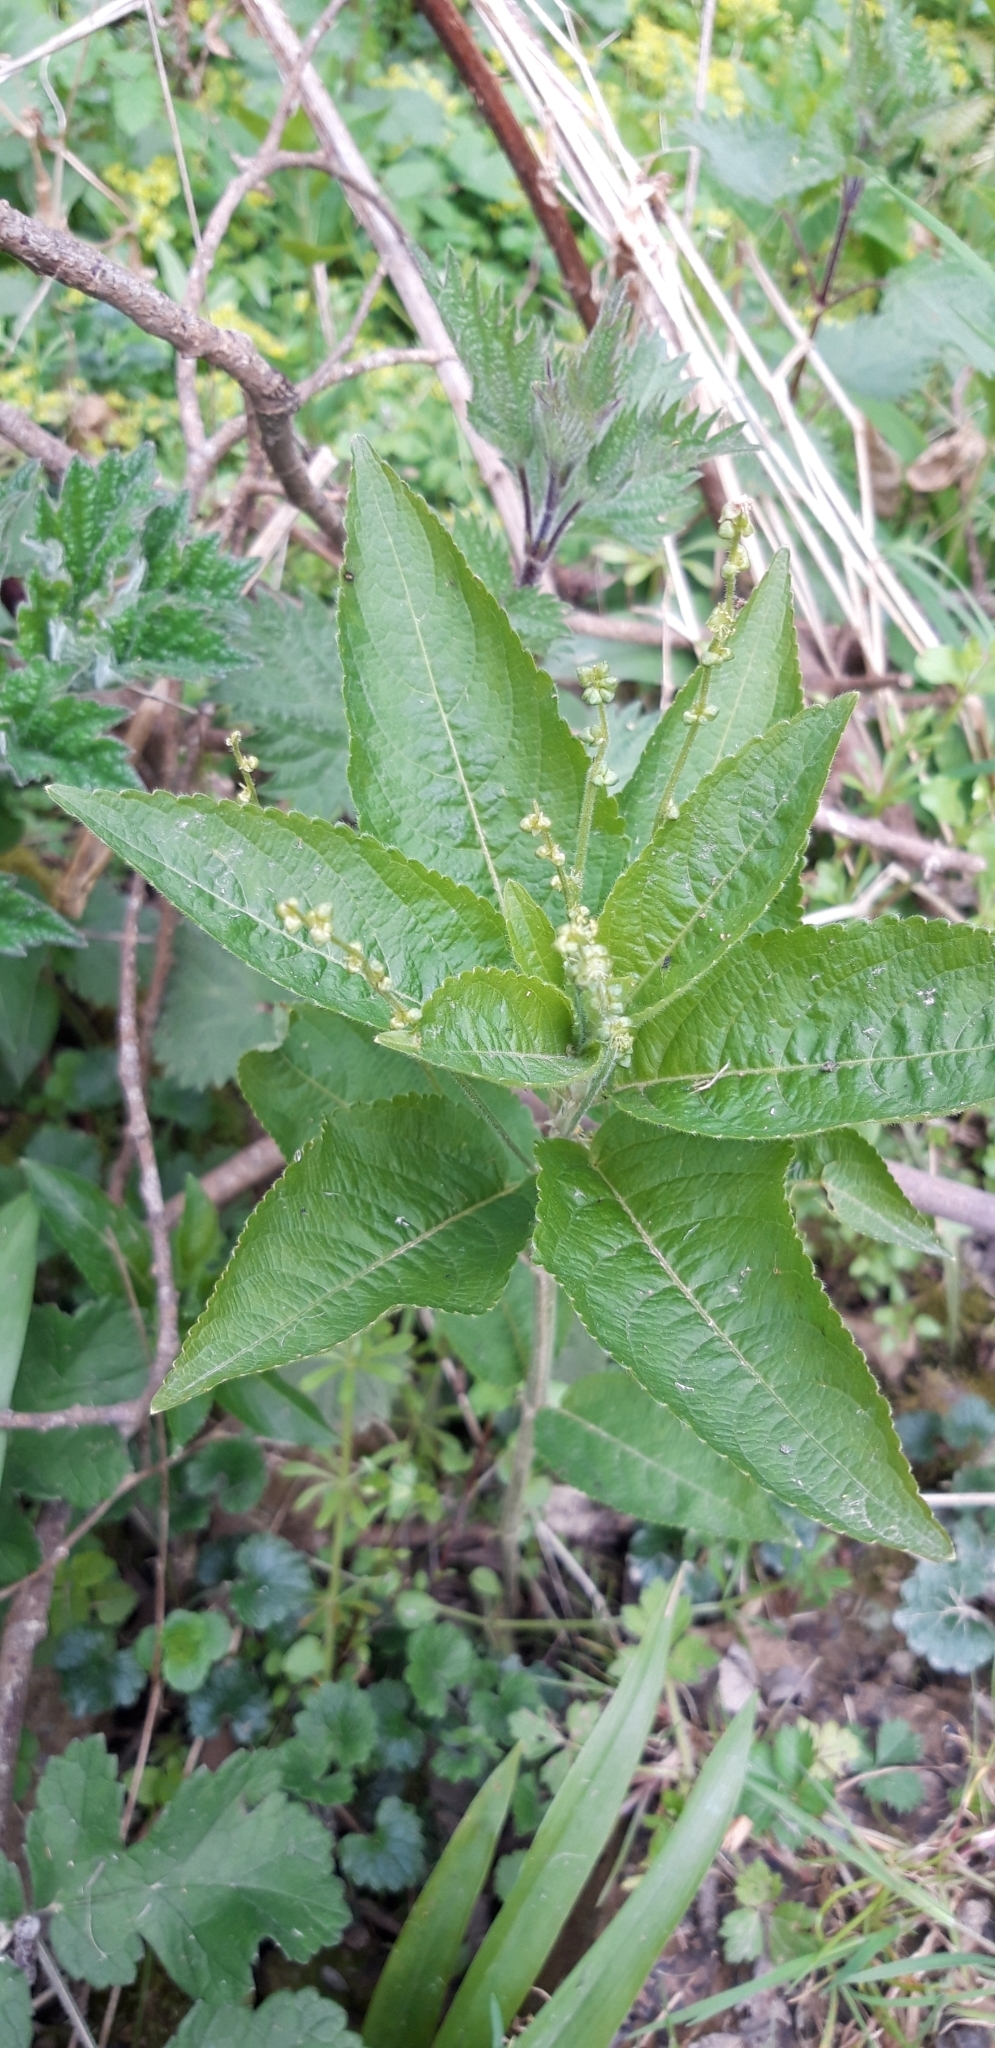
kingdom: Plantae
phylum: Tracheophyta
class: Magnoliopsida
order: Malpighiales
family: Euphorbiaceae
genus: Mercurialis
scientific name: Mercurialis perennis
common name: Dog mercury
